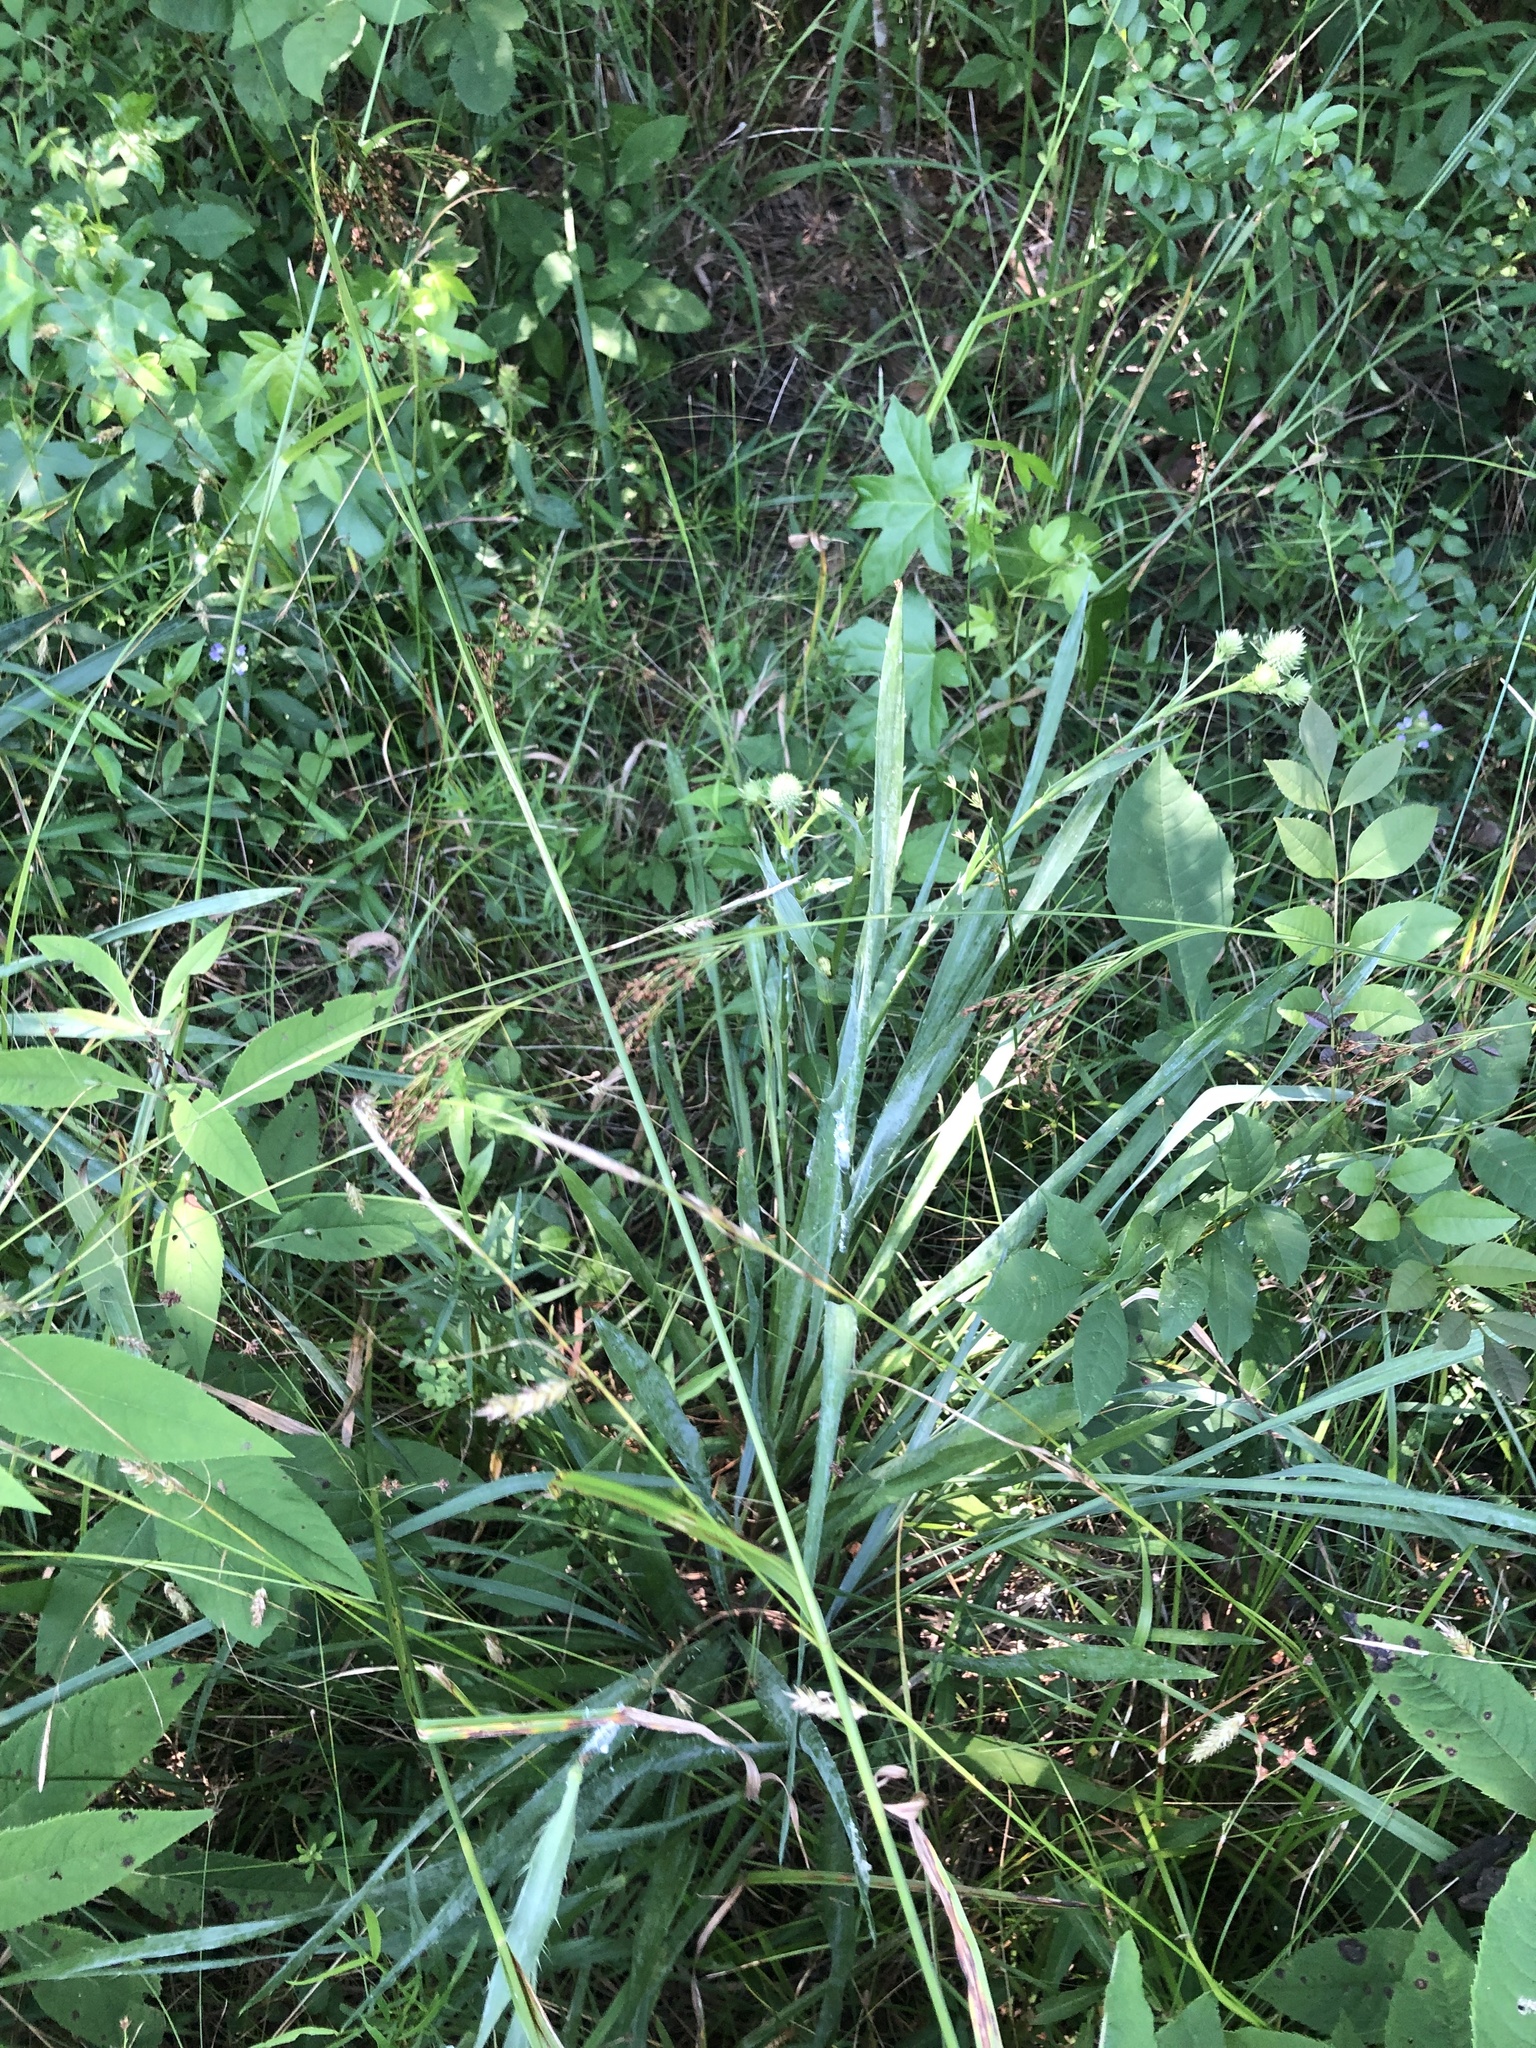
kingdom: Plantae
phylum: Tracheophyta
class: Magnoliopsida
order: Apiales
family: Apiaceae
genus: Eryngium
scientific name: Eryngium yuccifolium
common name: Button eryngo
